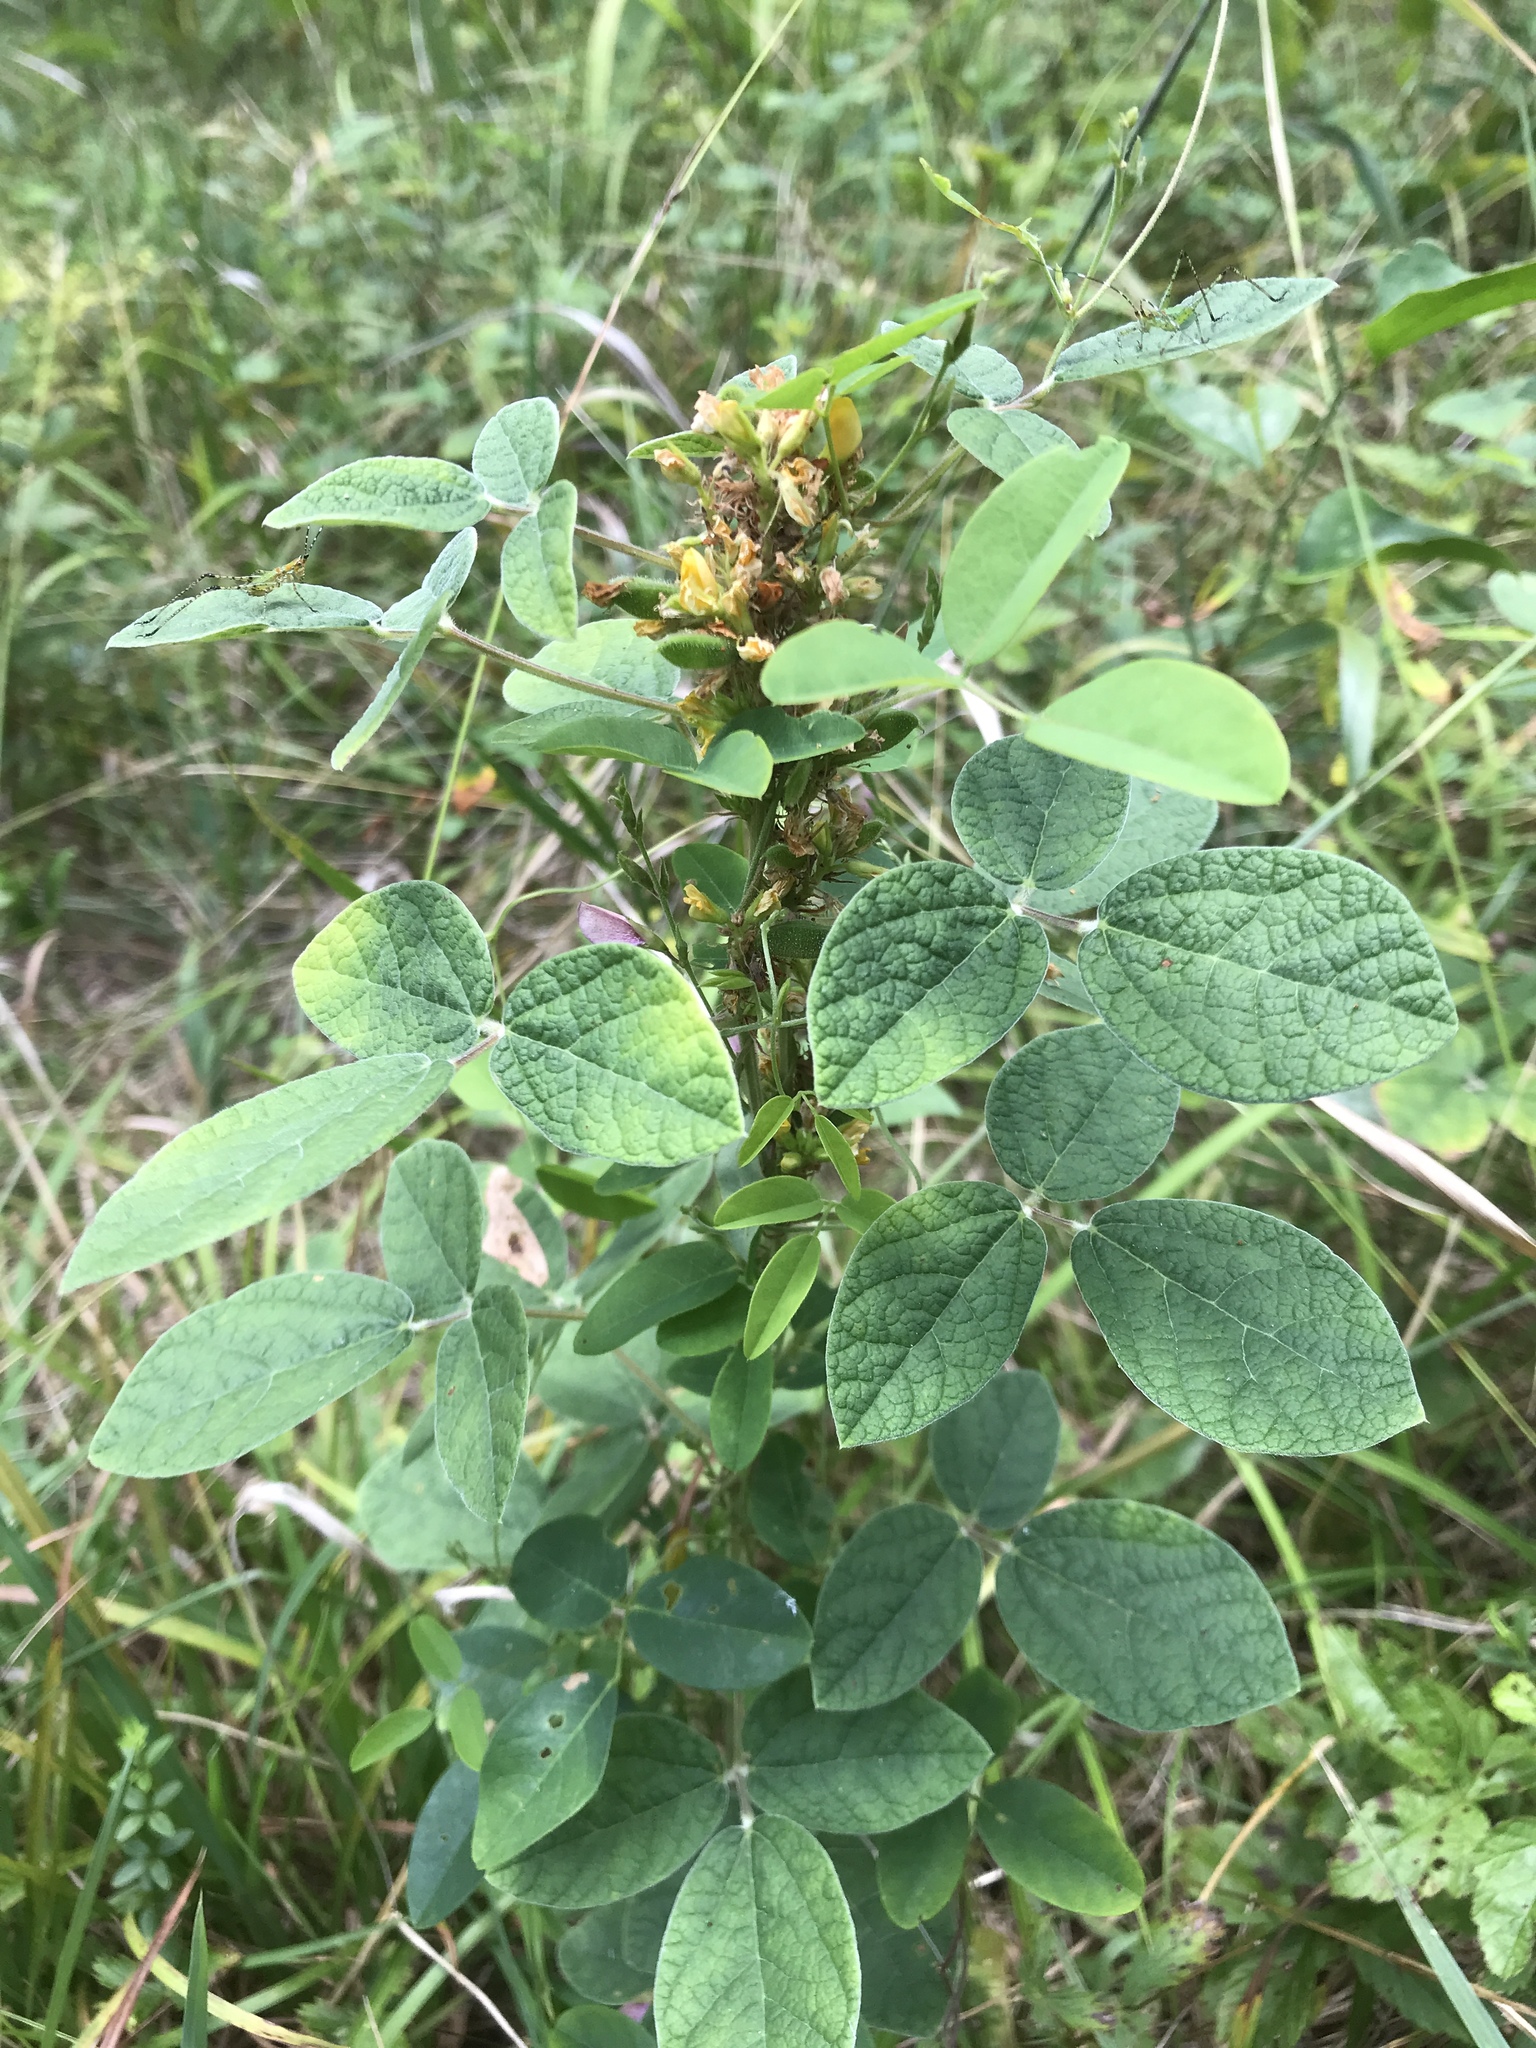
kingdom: Plantae
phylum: Tracheophyta
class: Magnoliopsida
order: Fabales
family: Fabaceae
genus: Rhynchosia
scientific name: Rhynchosia tomentosa
